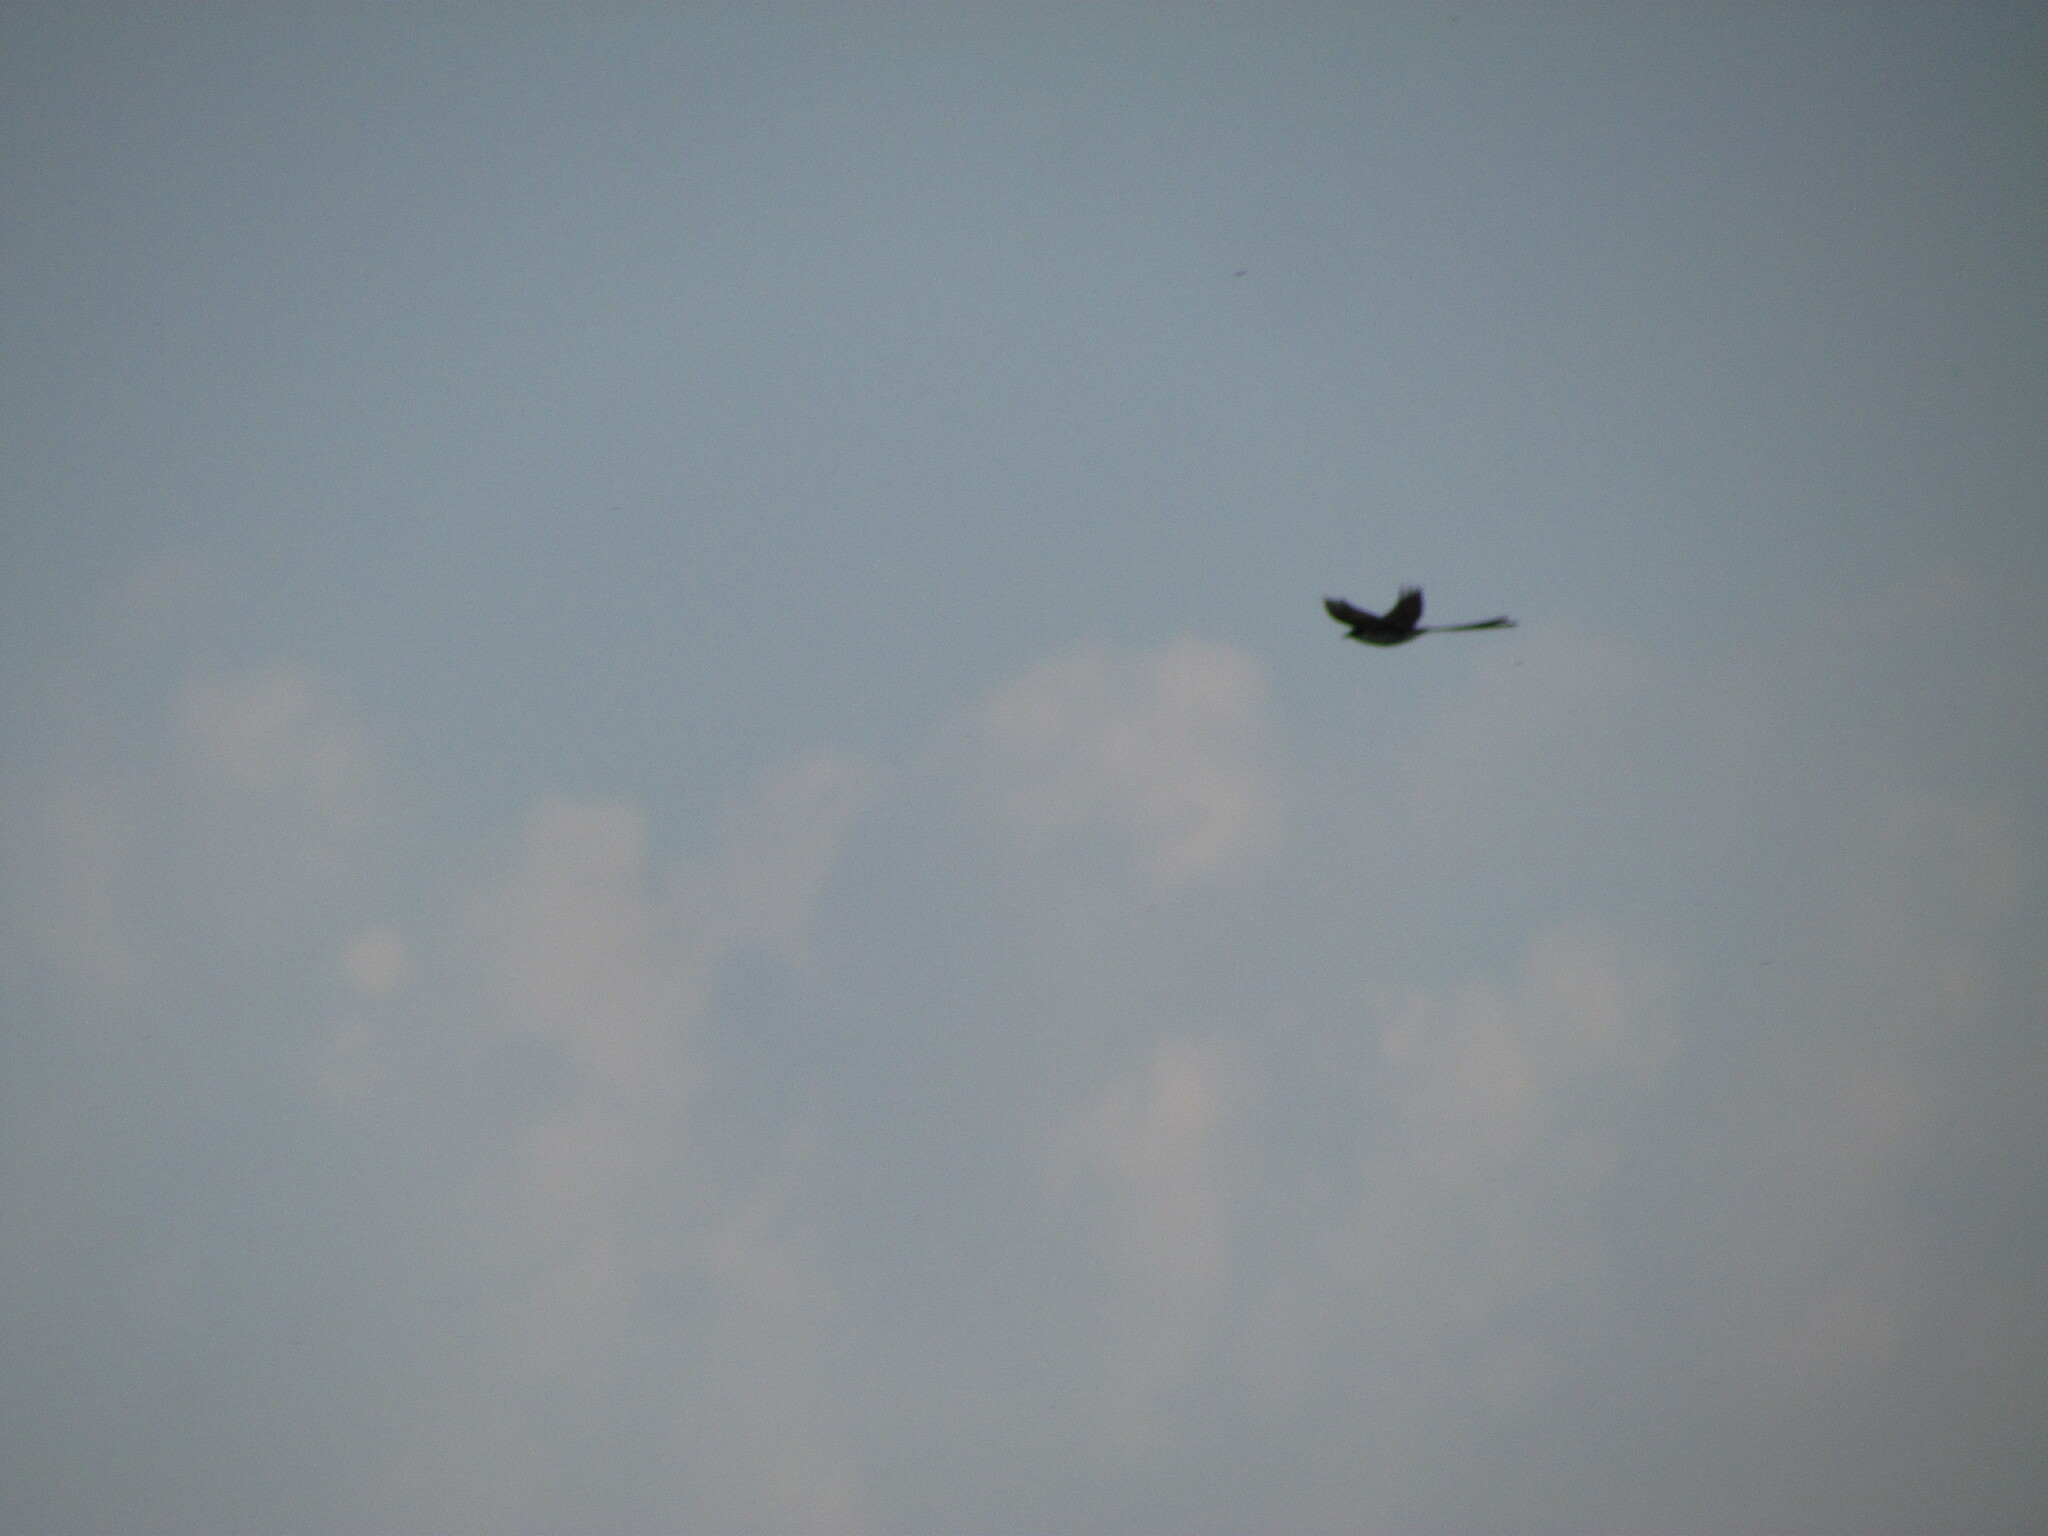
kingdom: Animalia
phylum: Chordata
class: Aves
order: Passeriformes
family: Tyrannidae
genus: Tyrannus
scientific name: Tyrannus savana
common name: Fork-tailed flycatcher
